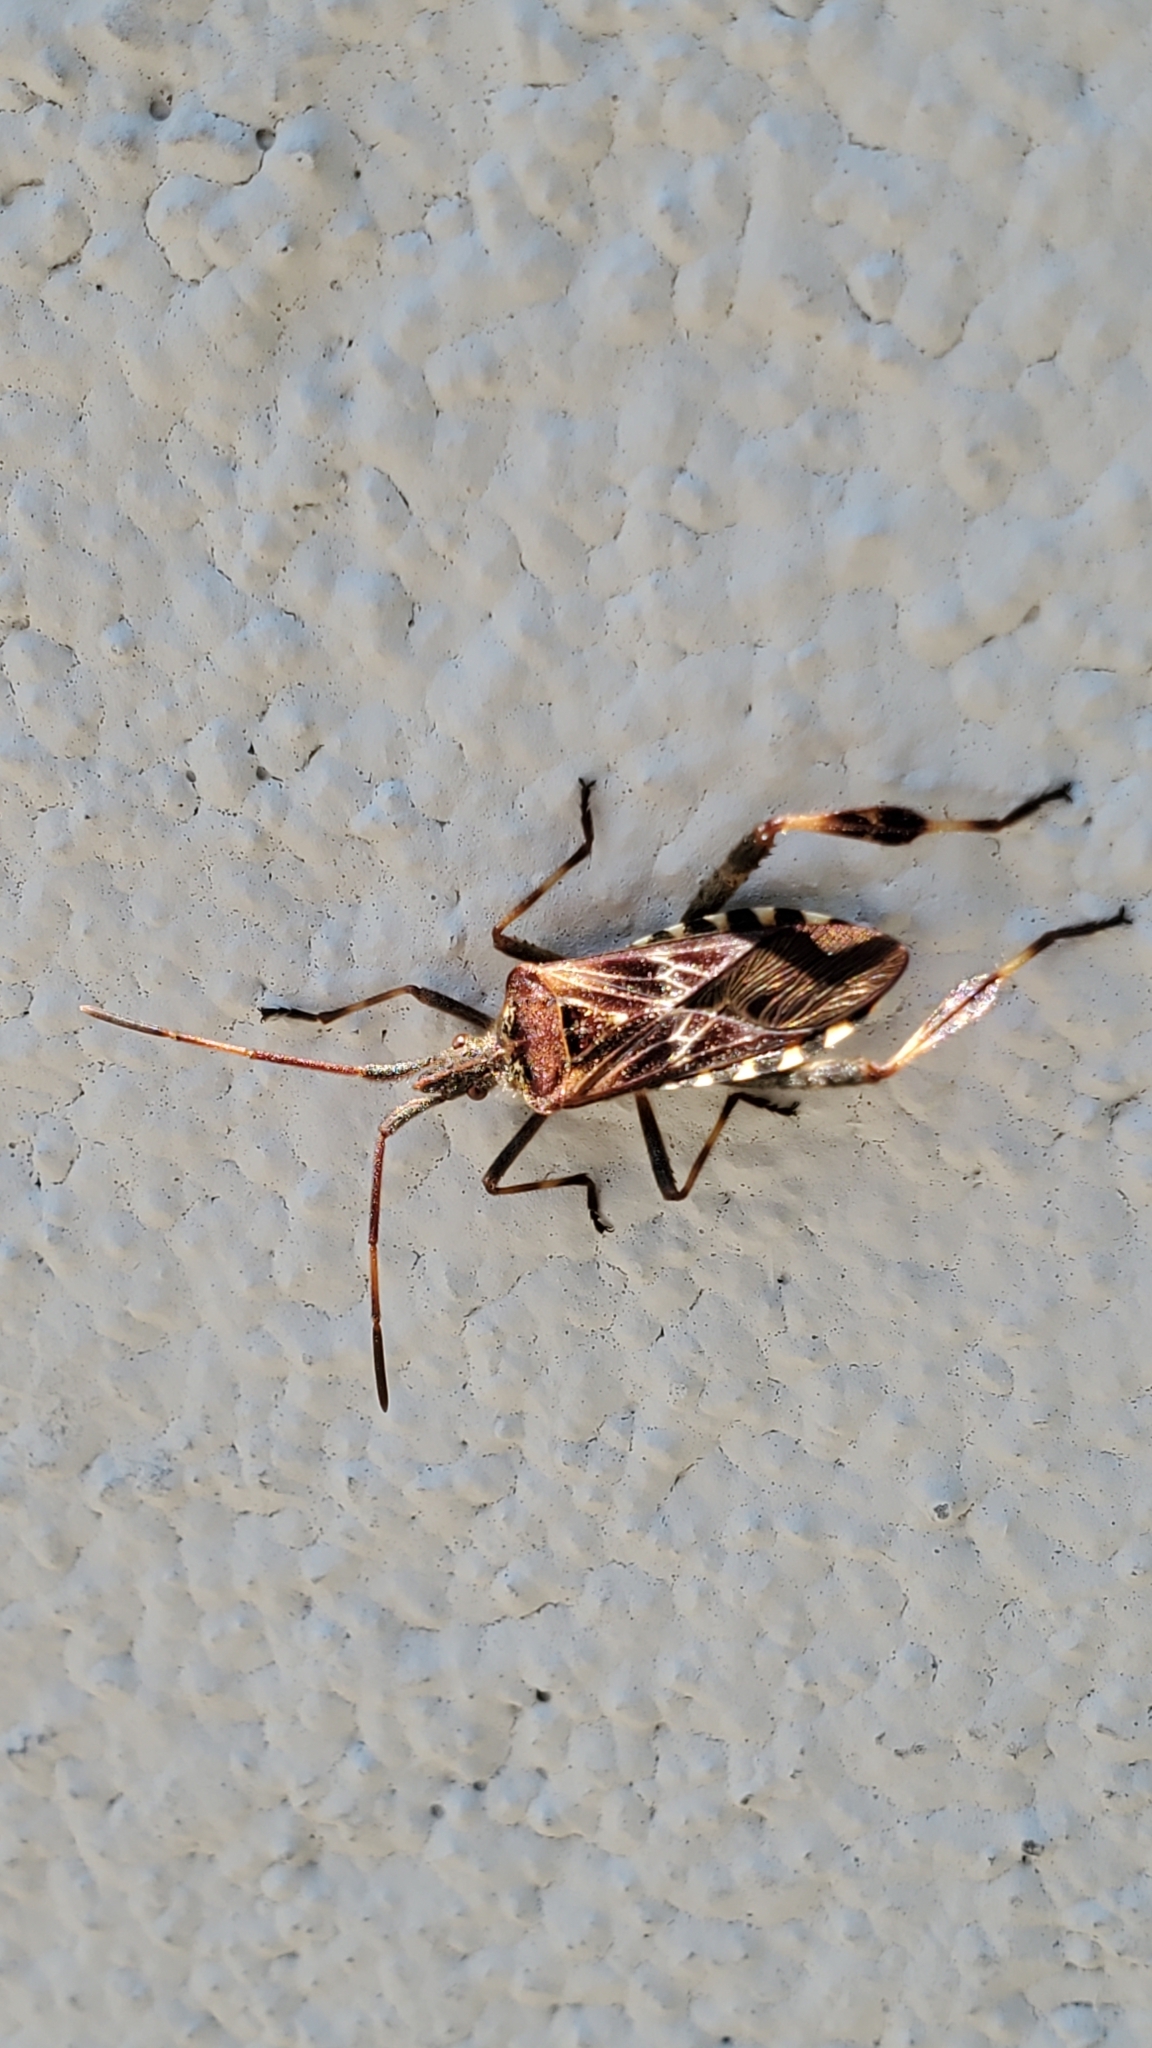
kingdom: Animalia
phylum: Arthropoda
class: Insecta
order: Hemiptera
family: Coreidae
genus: Leptoglossus
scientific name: Leptoglossus occidentalis
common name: Western conifer-seed bug
